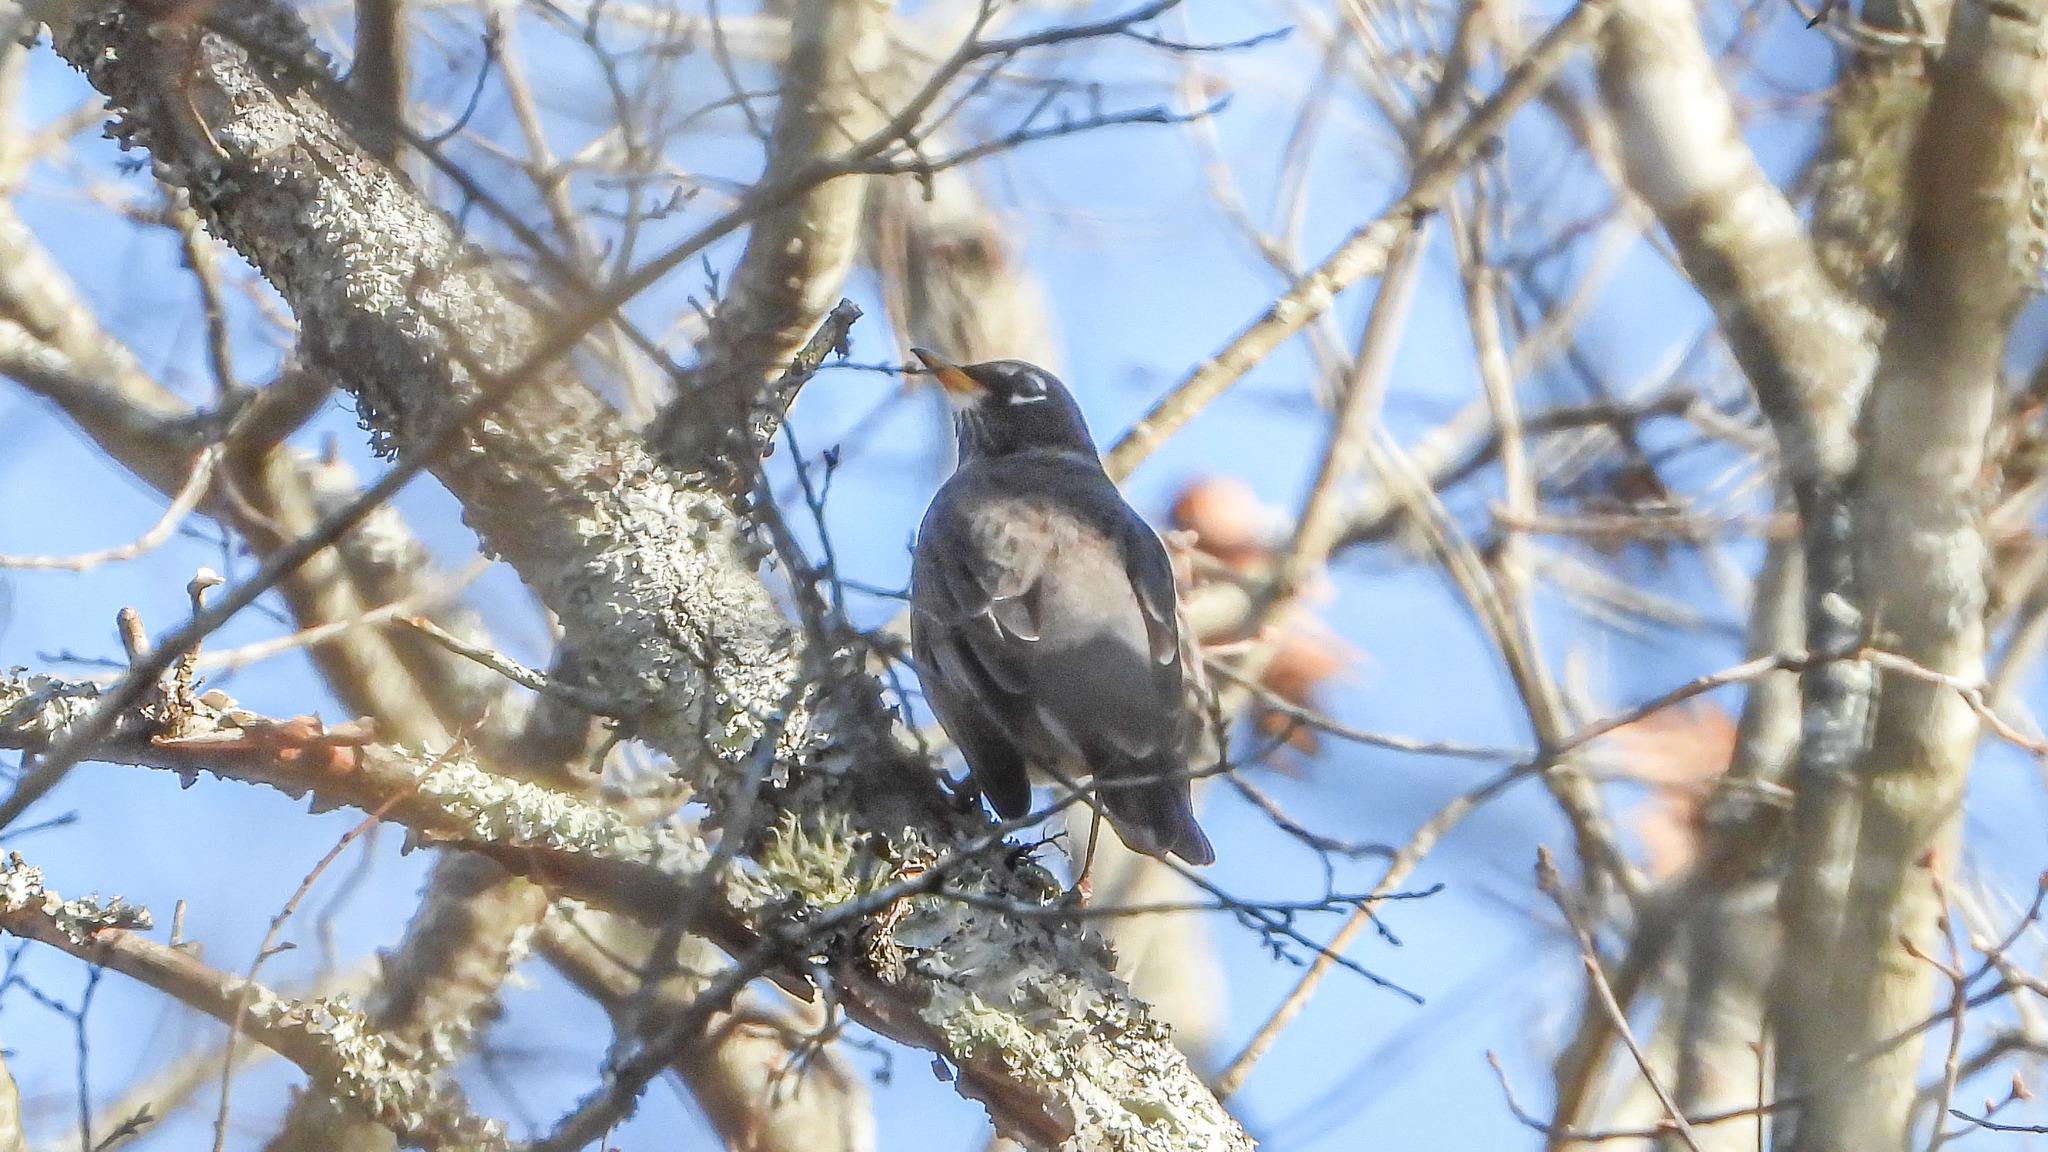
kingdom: Animalia
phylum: Chordata
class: Aves
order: Passeriformes
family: Turdidae
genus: Turdus
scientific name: Turdus migratorius
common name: American robin
